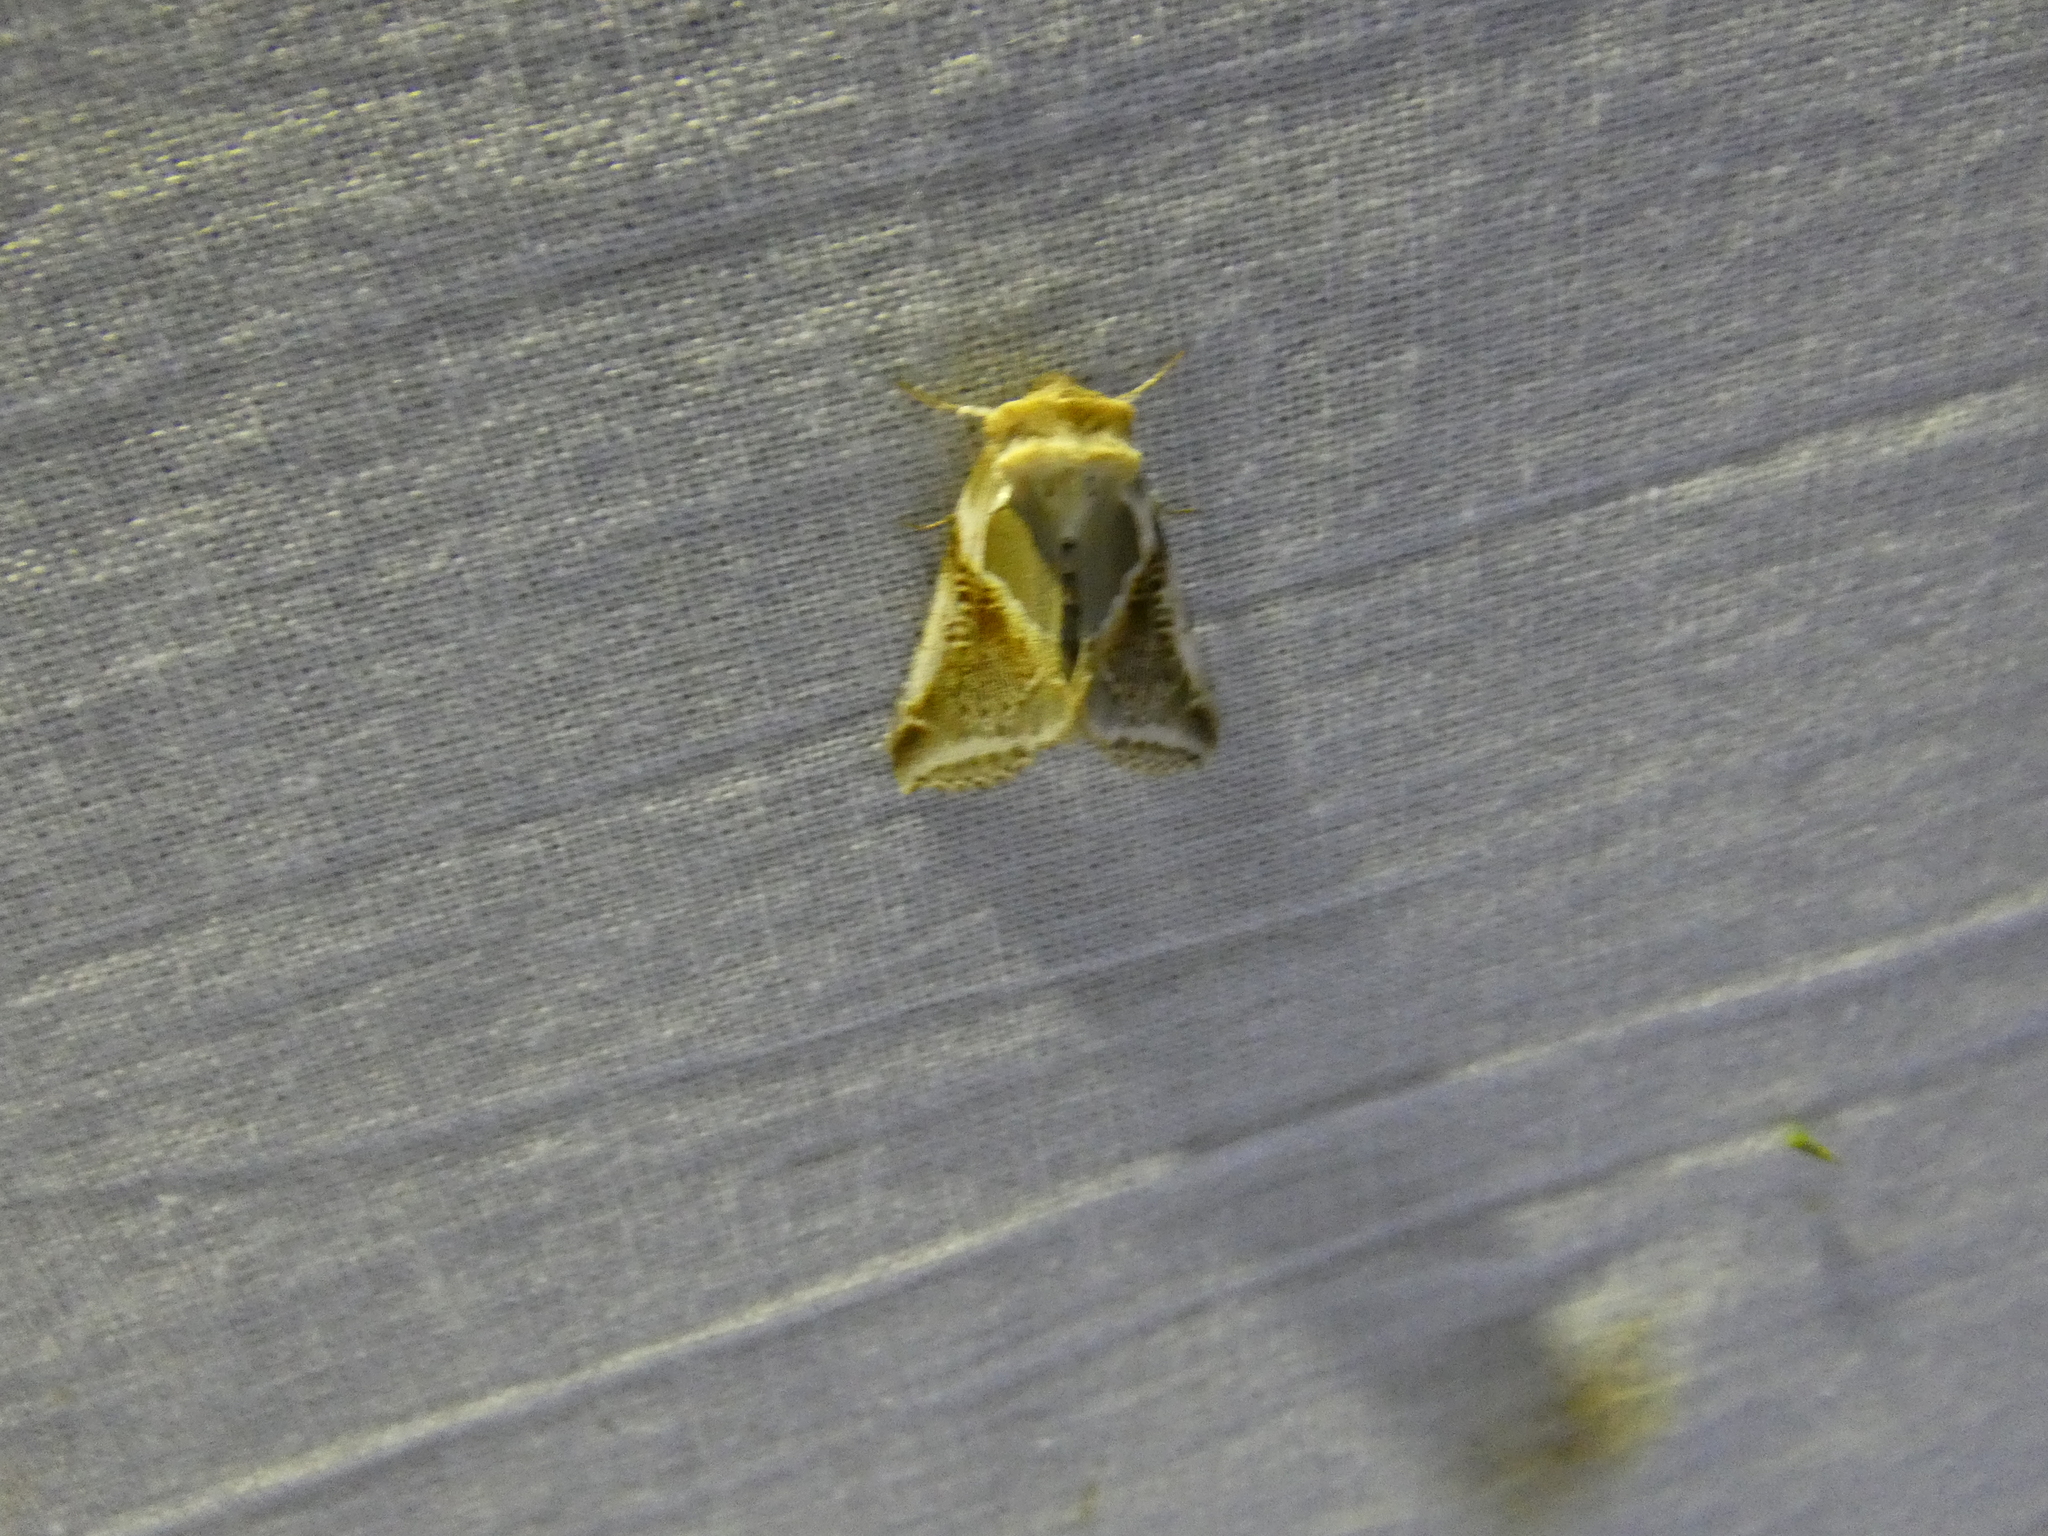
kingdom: Animalia
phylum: Arthropoda
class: Insecta
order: Lepidoptera
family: Drepanidae
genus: Habrosyne
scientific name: Habrosyne pyritoides
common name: Buff arches
